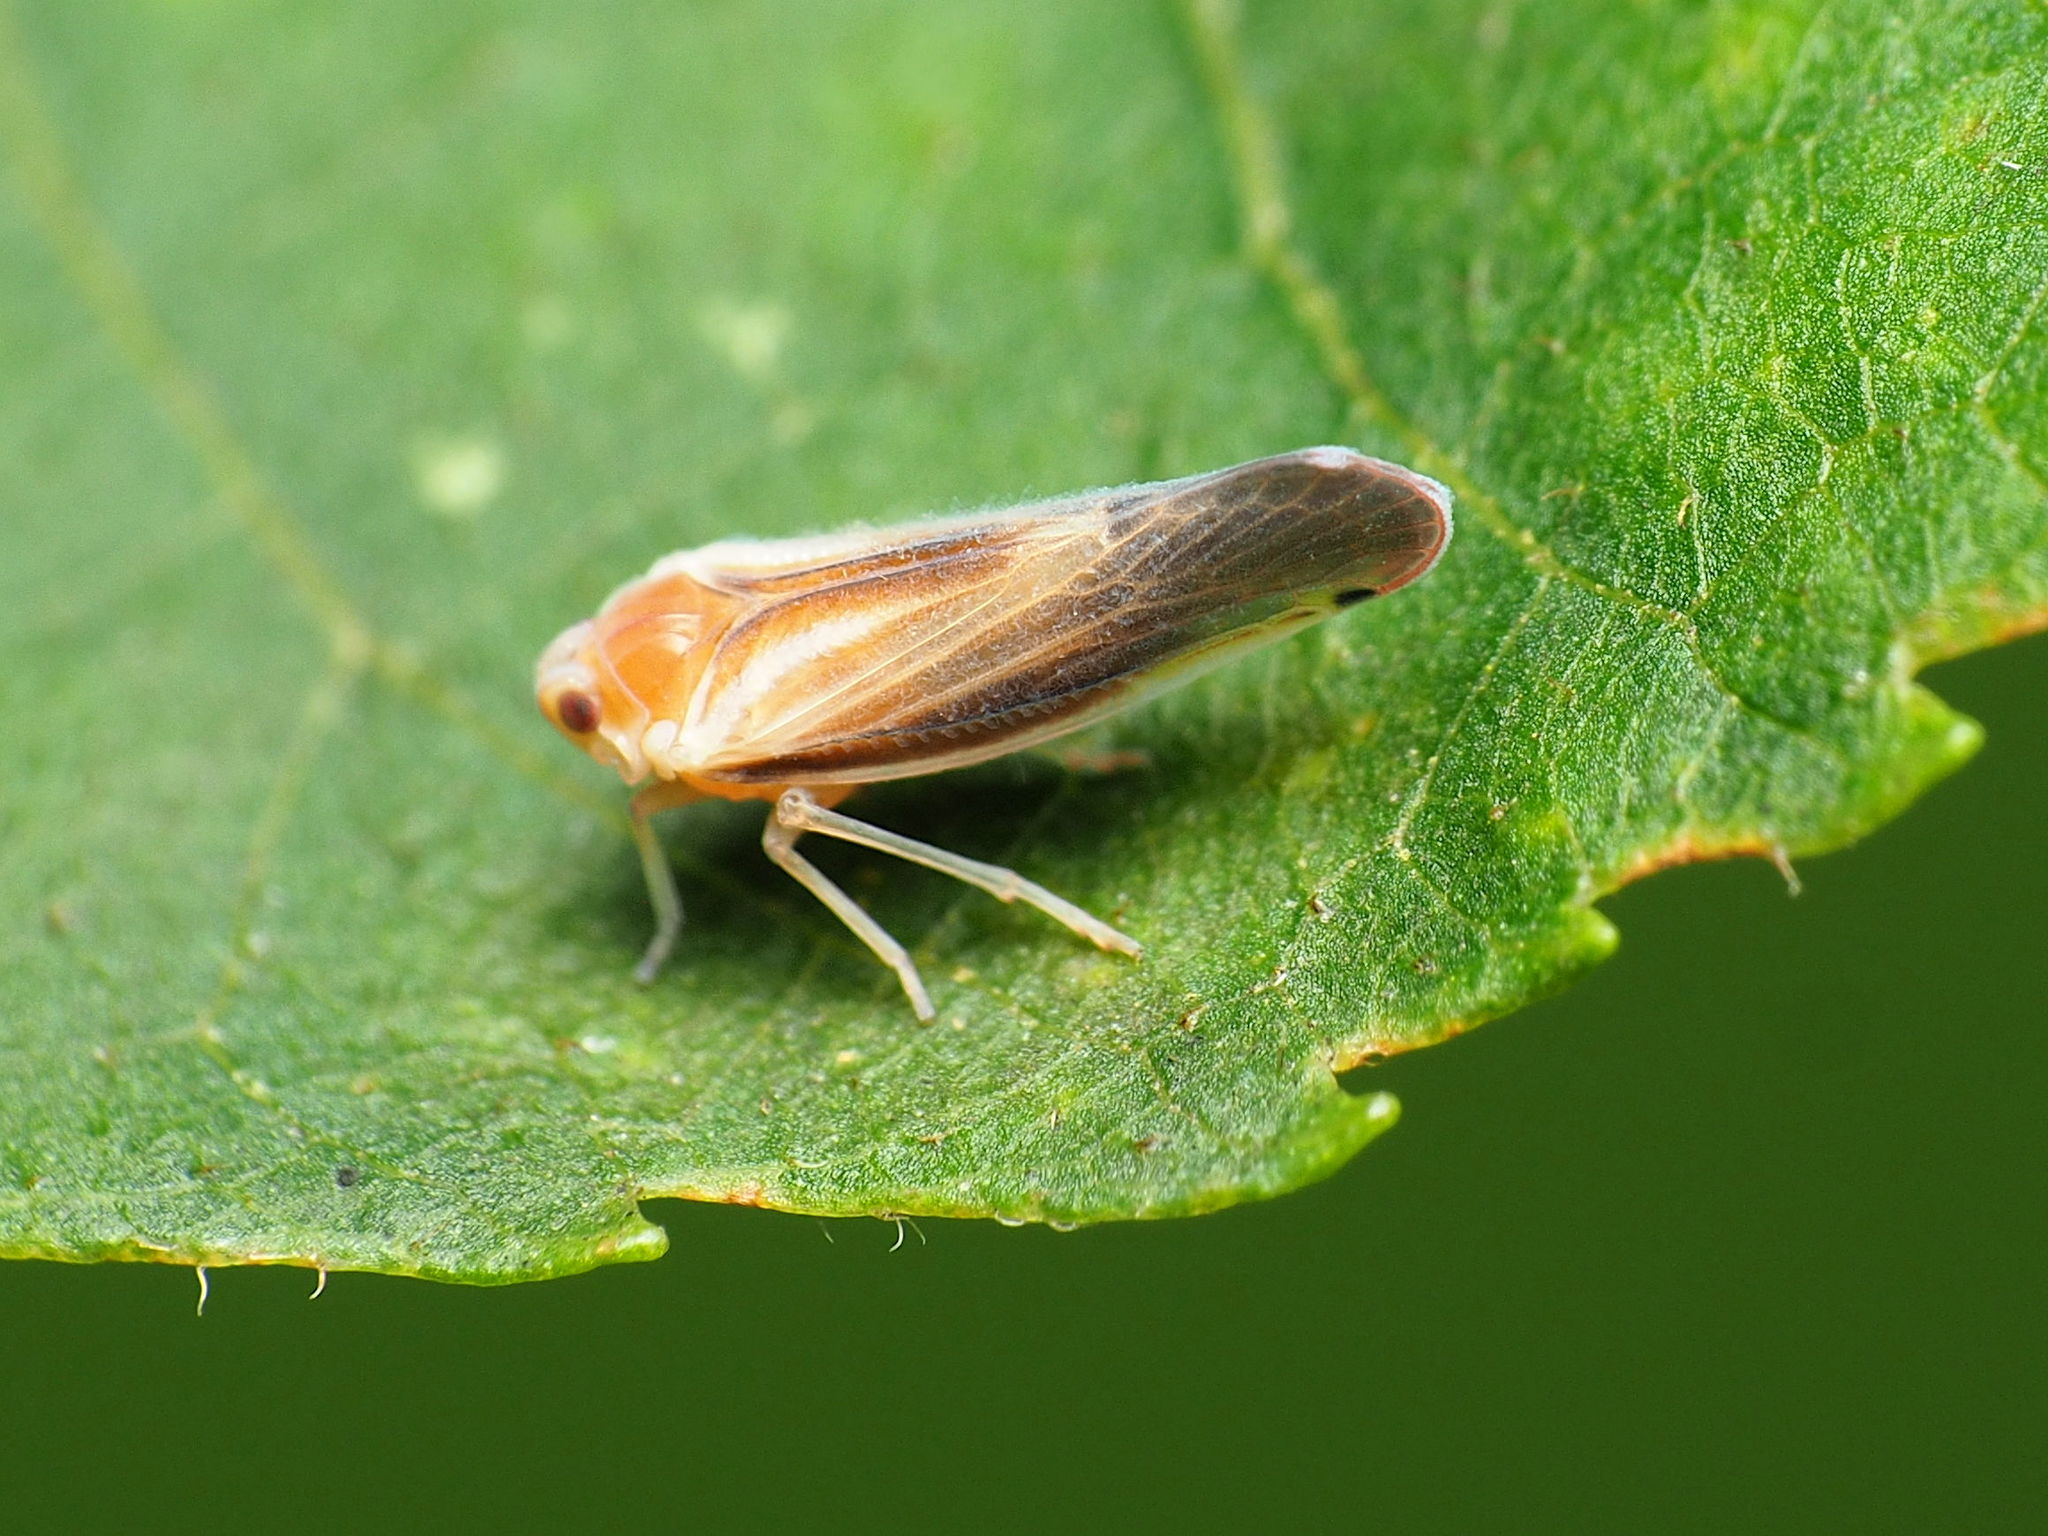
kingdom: Animalia
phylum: Arthropoda
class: Insecta
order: Hemiptera
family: Derbidae
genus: Omolicna
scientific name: Omolicna uhleri
